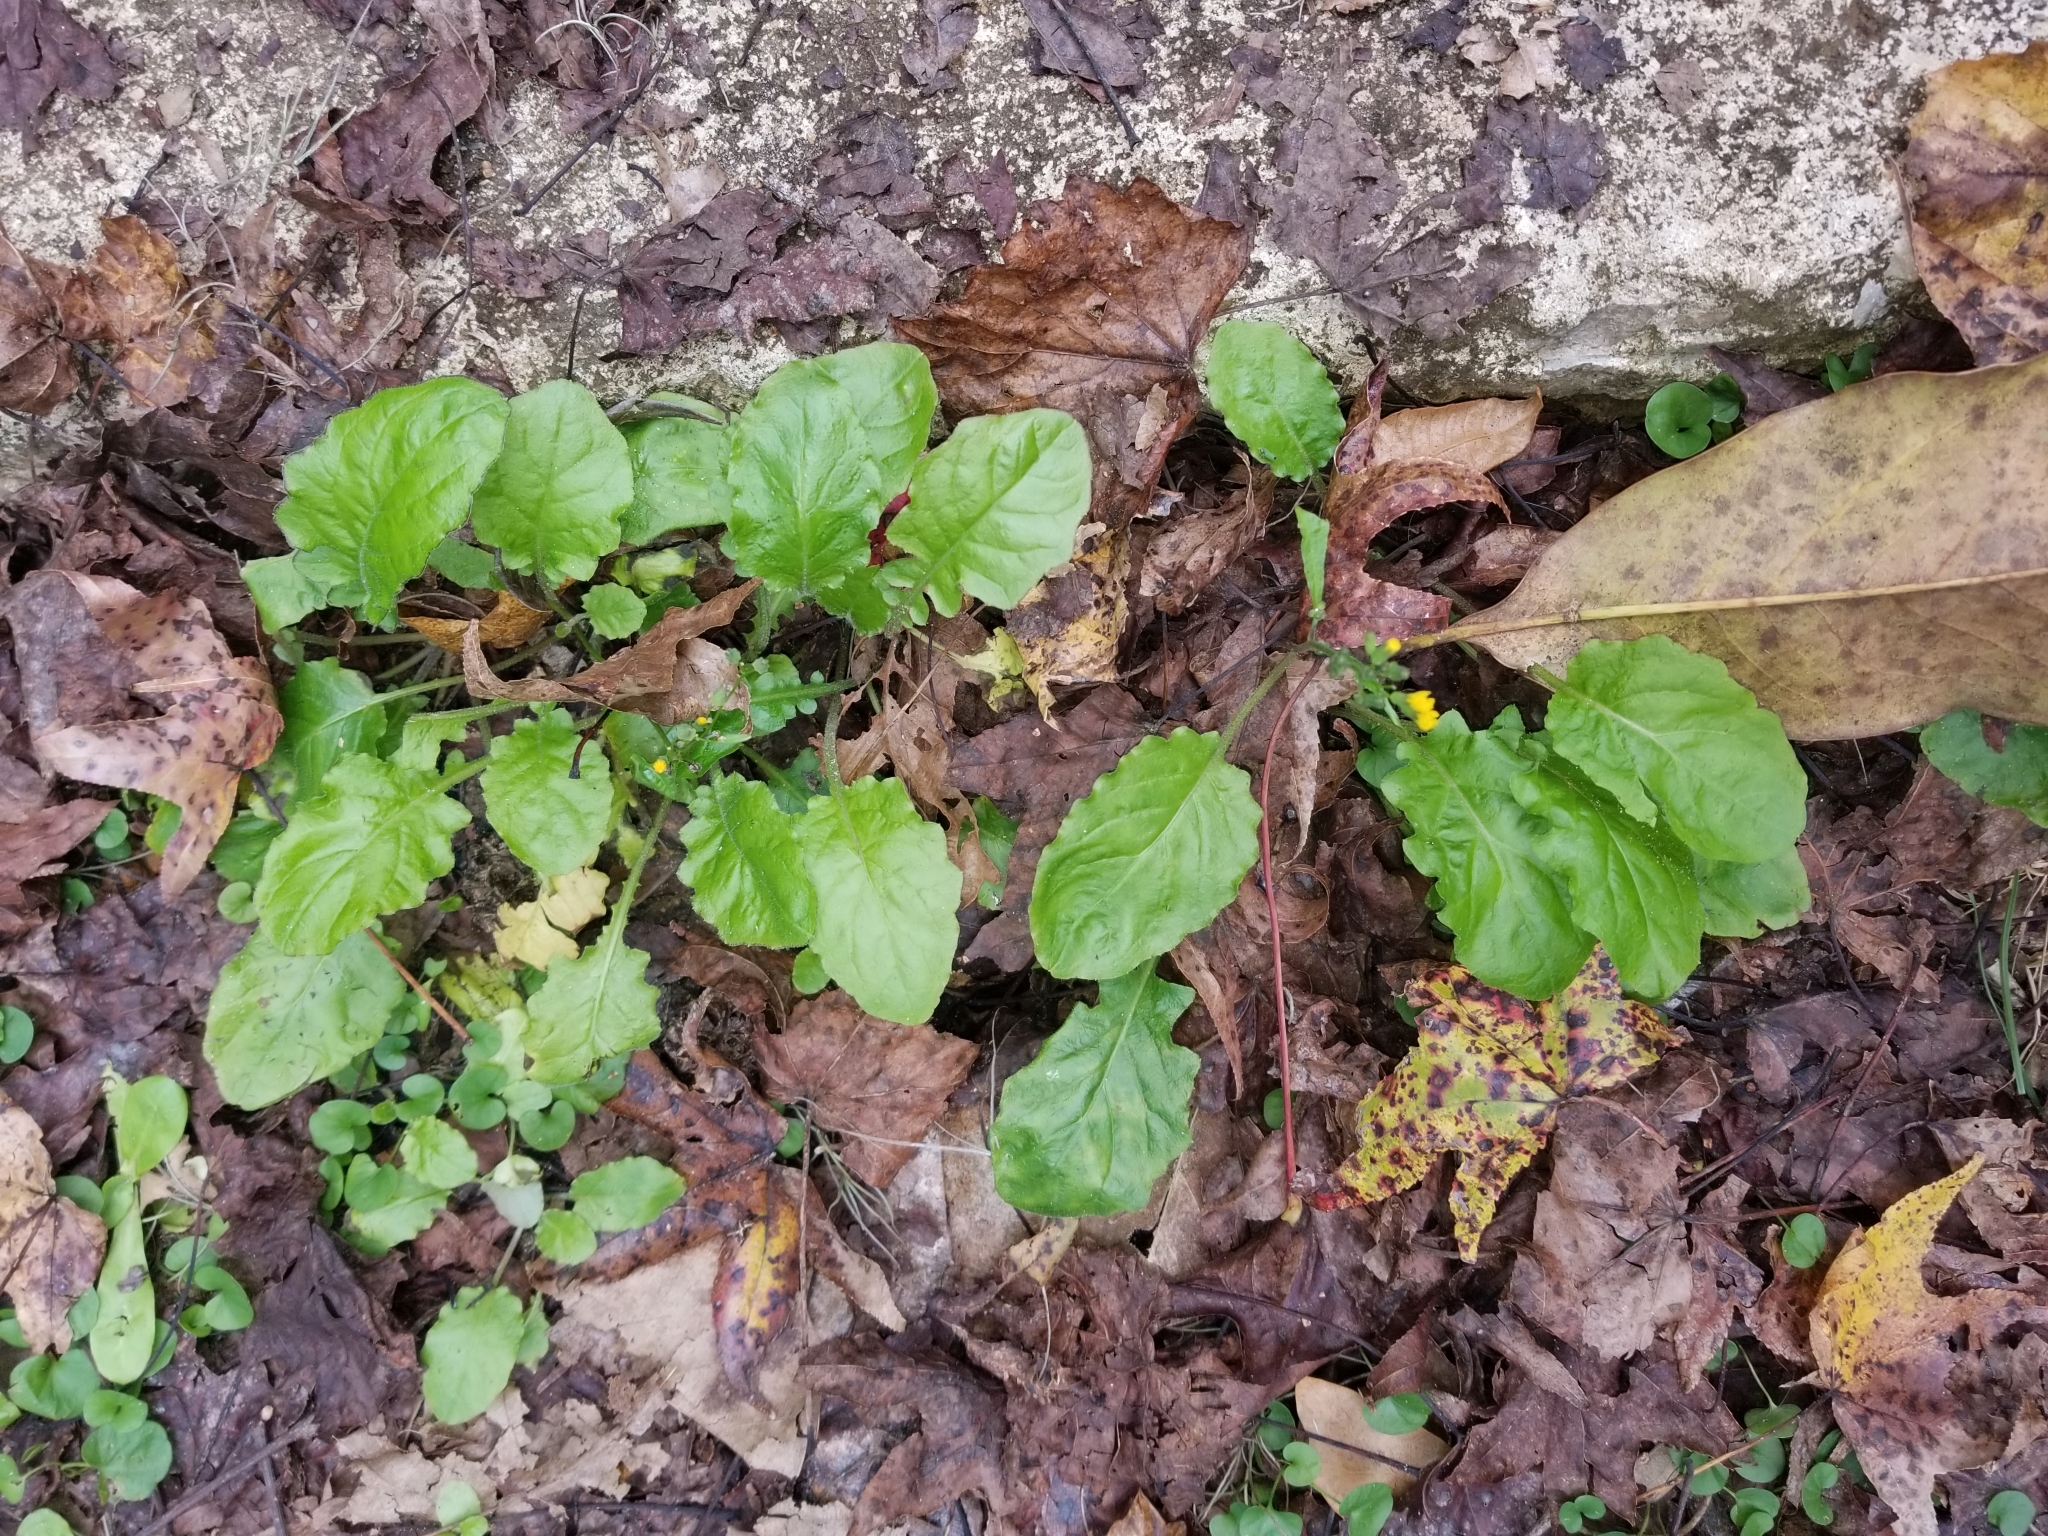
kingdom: Plantae
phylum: Tracheophyta
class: Magnoliopsida
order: Asterales
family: Asteraceae
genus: Youngia
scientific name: Youngia japonica
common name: Oriental false hawksbeard
